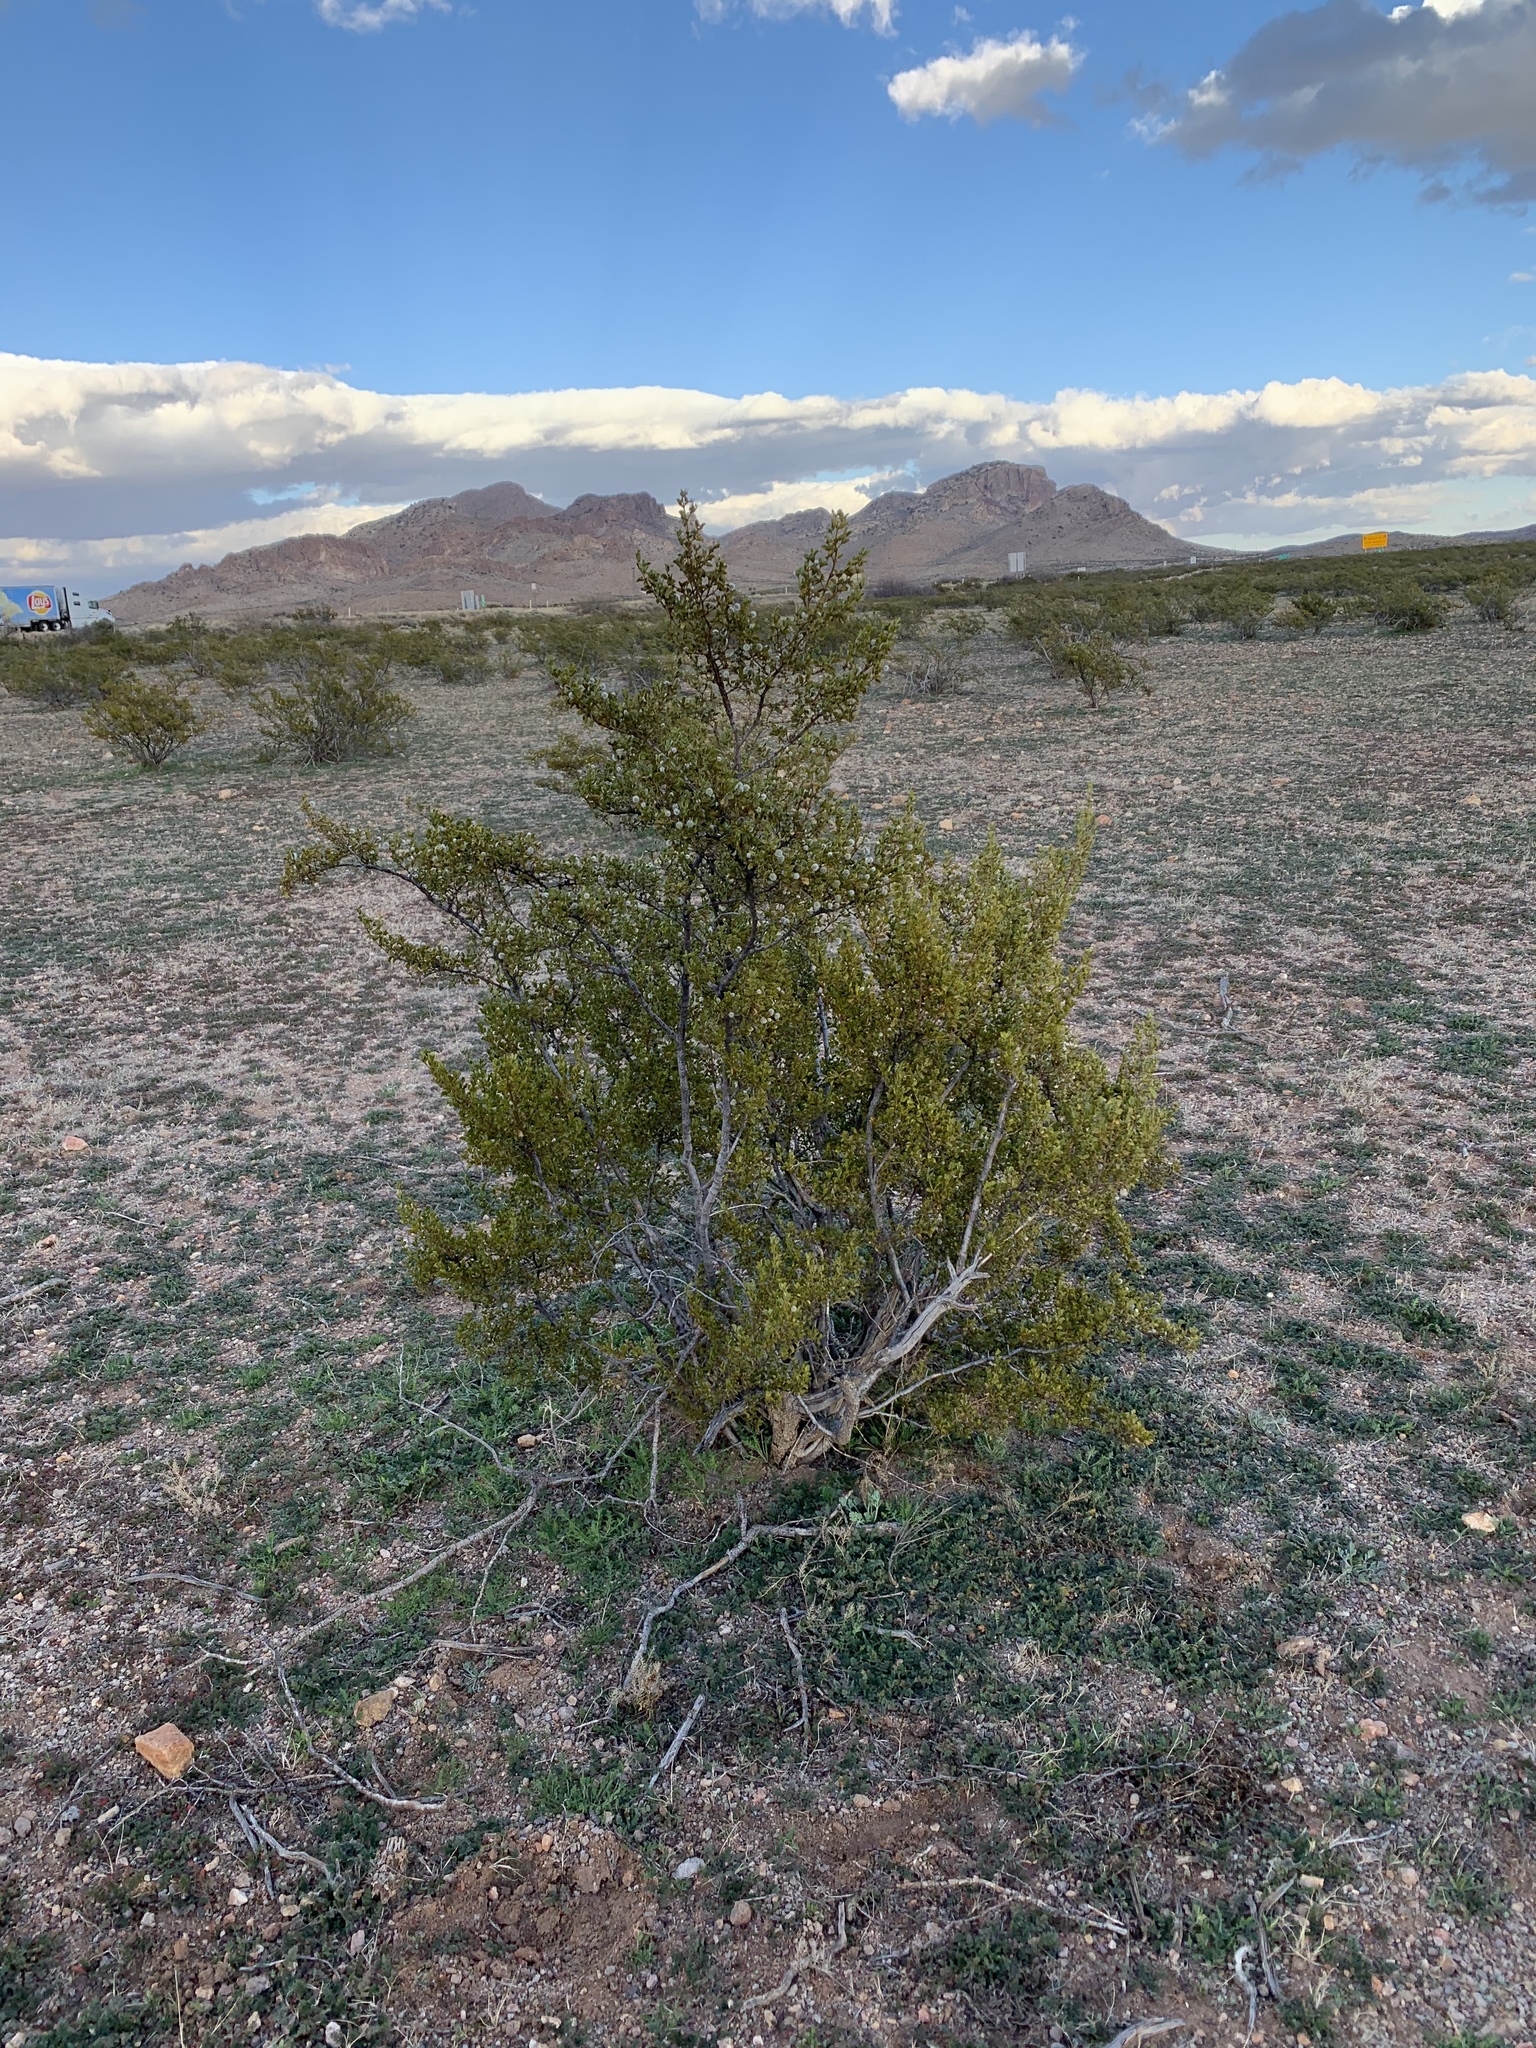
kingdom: Plantae
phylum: Tracheophyta
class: Magnoliopsida
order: Zygophyllales
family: Zygophyllaceae
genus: Larrea
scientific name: Larrea tridentata
